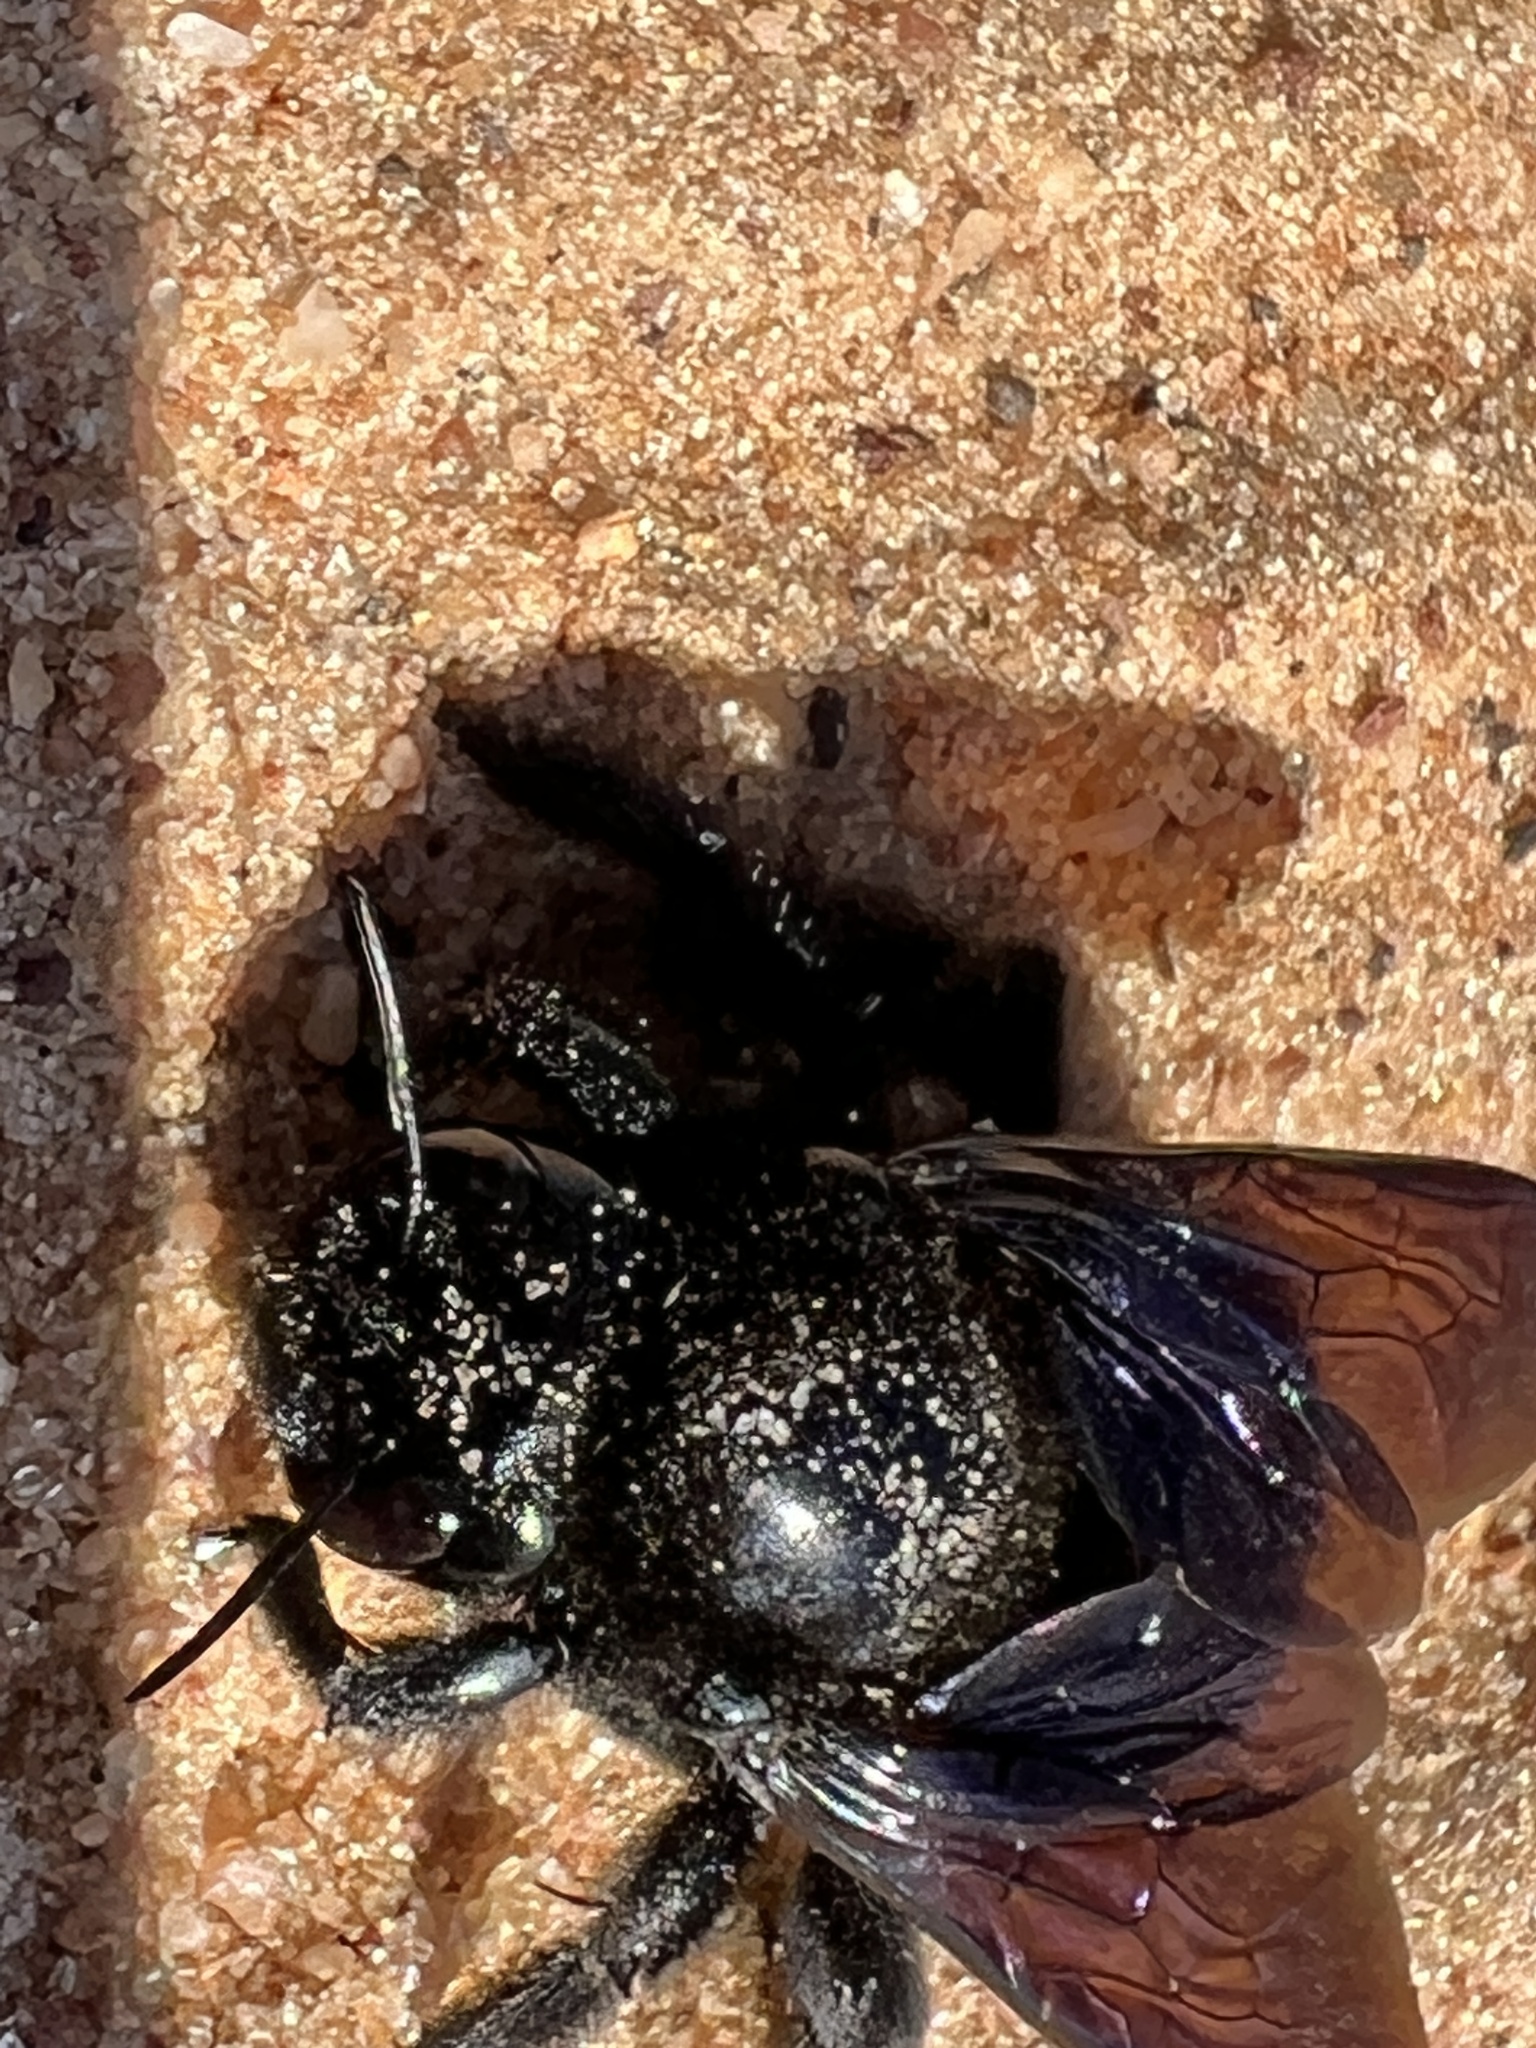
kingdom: Animalia
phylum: Arthropoda
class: Insecta
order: Hymenoptera
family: Apidae
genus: Xylocopa
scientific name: Xylocopa augusti
